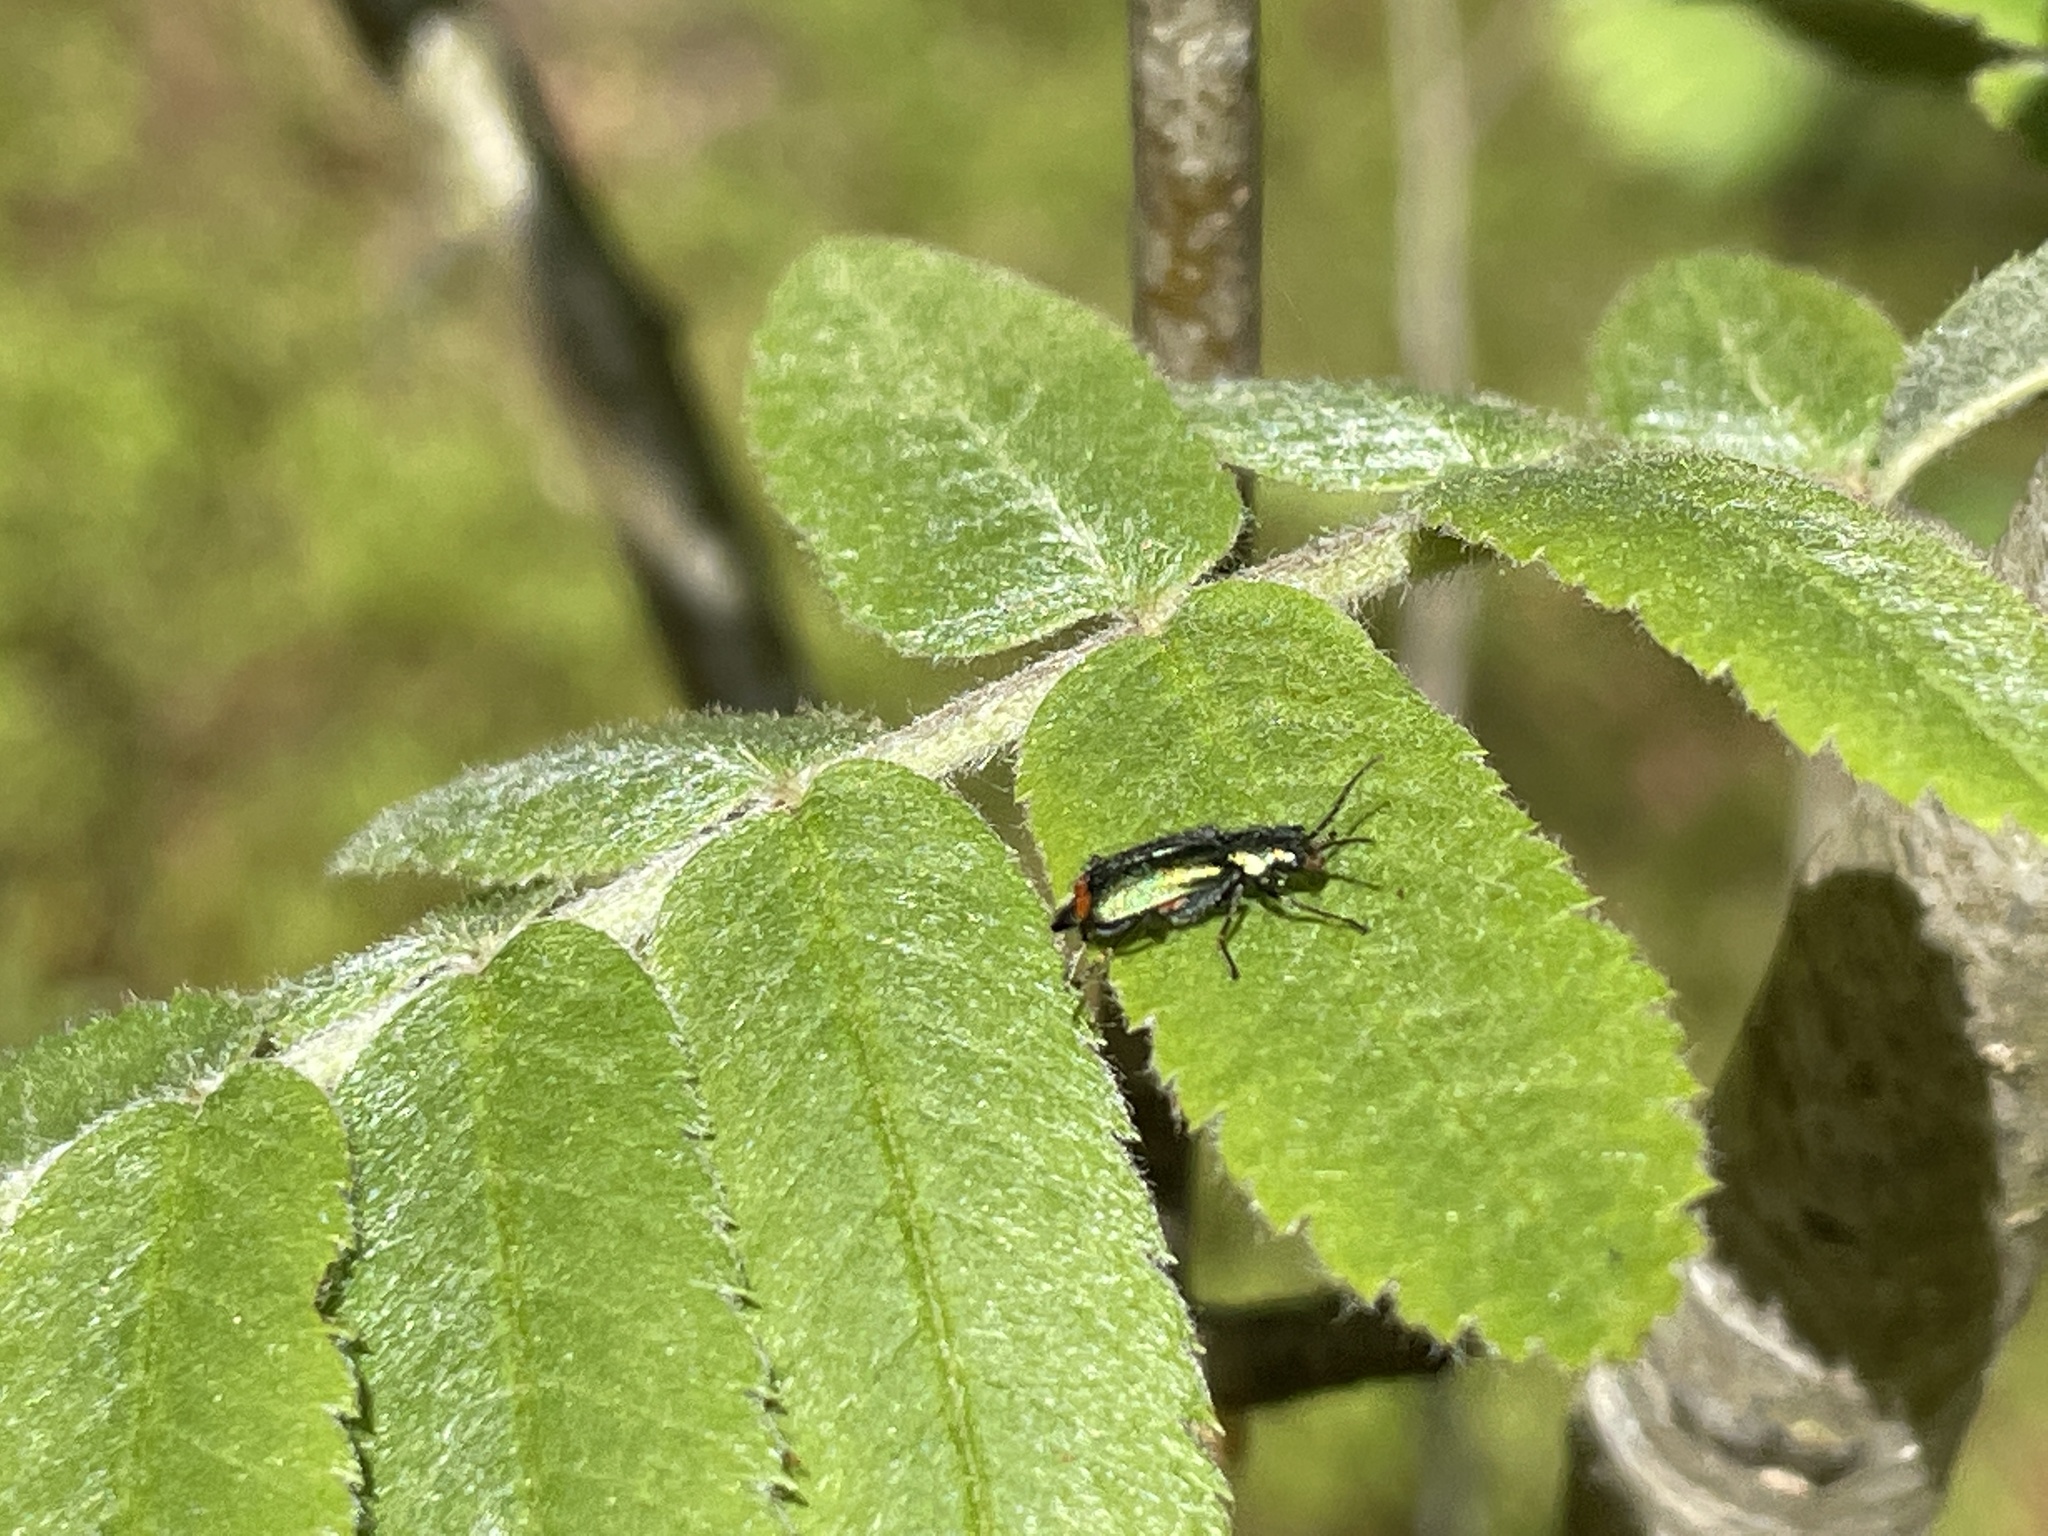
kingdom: Animalia
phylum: Arthropoda
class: Insecta
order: Coleoptera
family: Melyridae
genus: Malachius
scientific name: Malachius bipustulatus
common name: Malachite beetle
